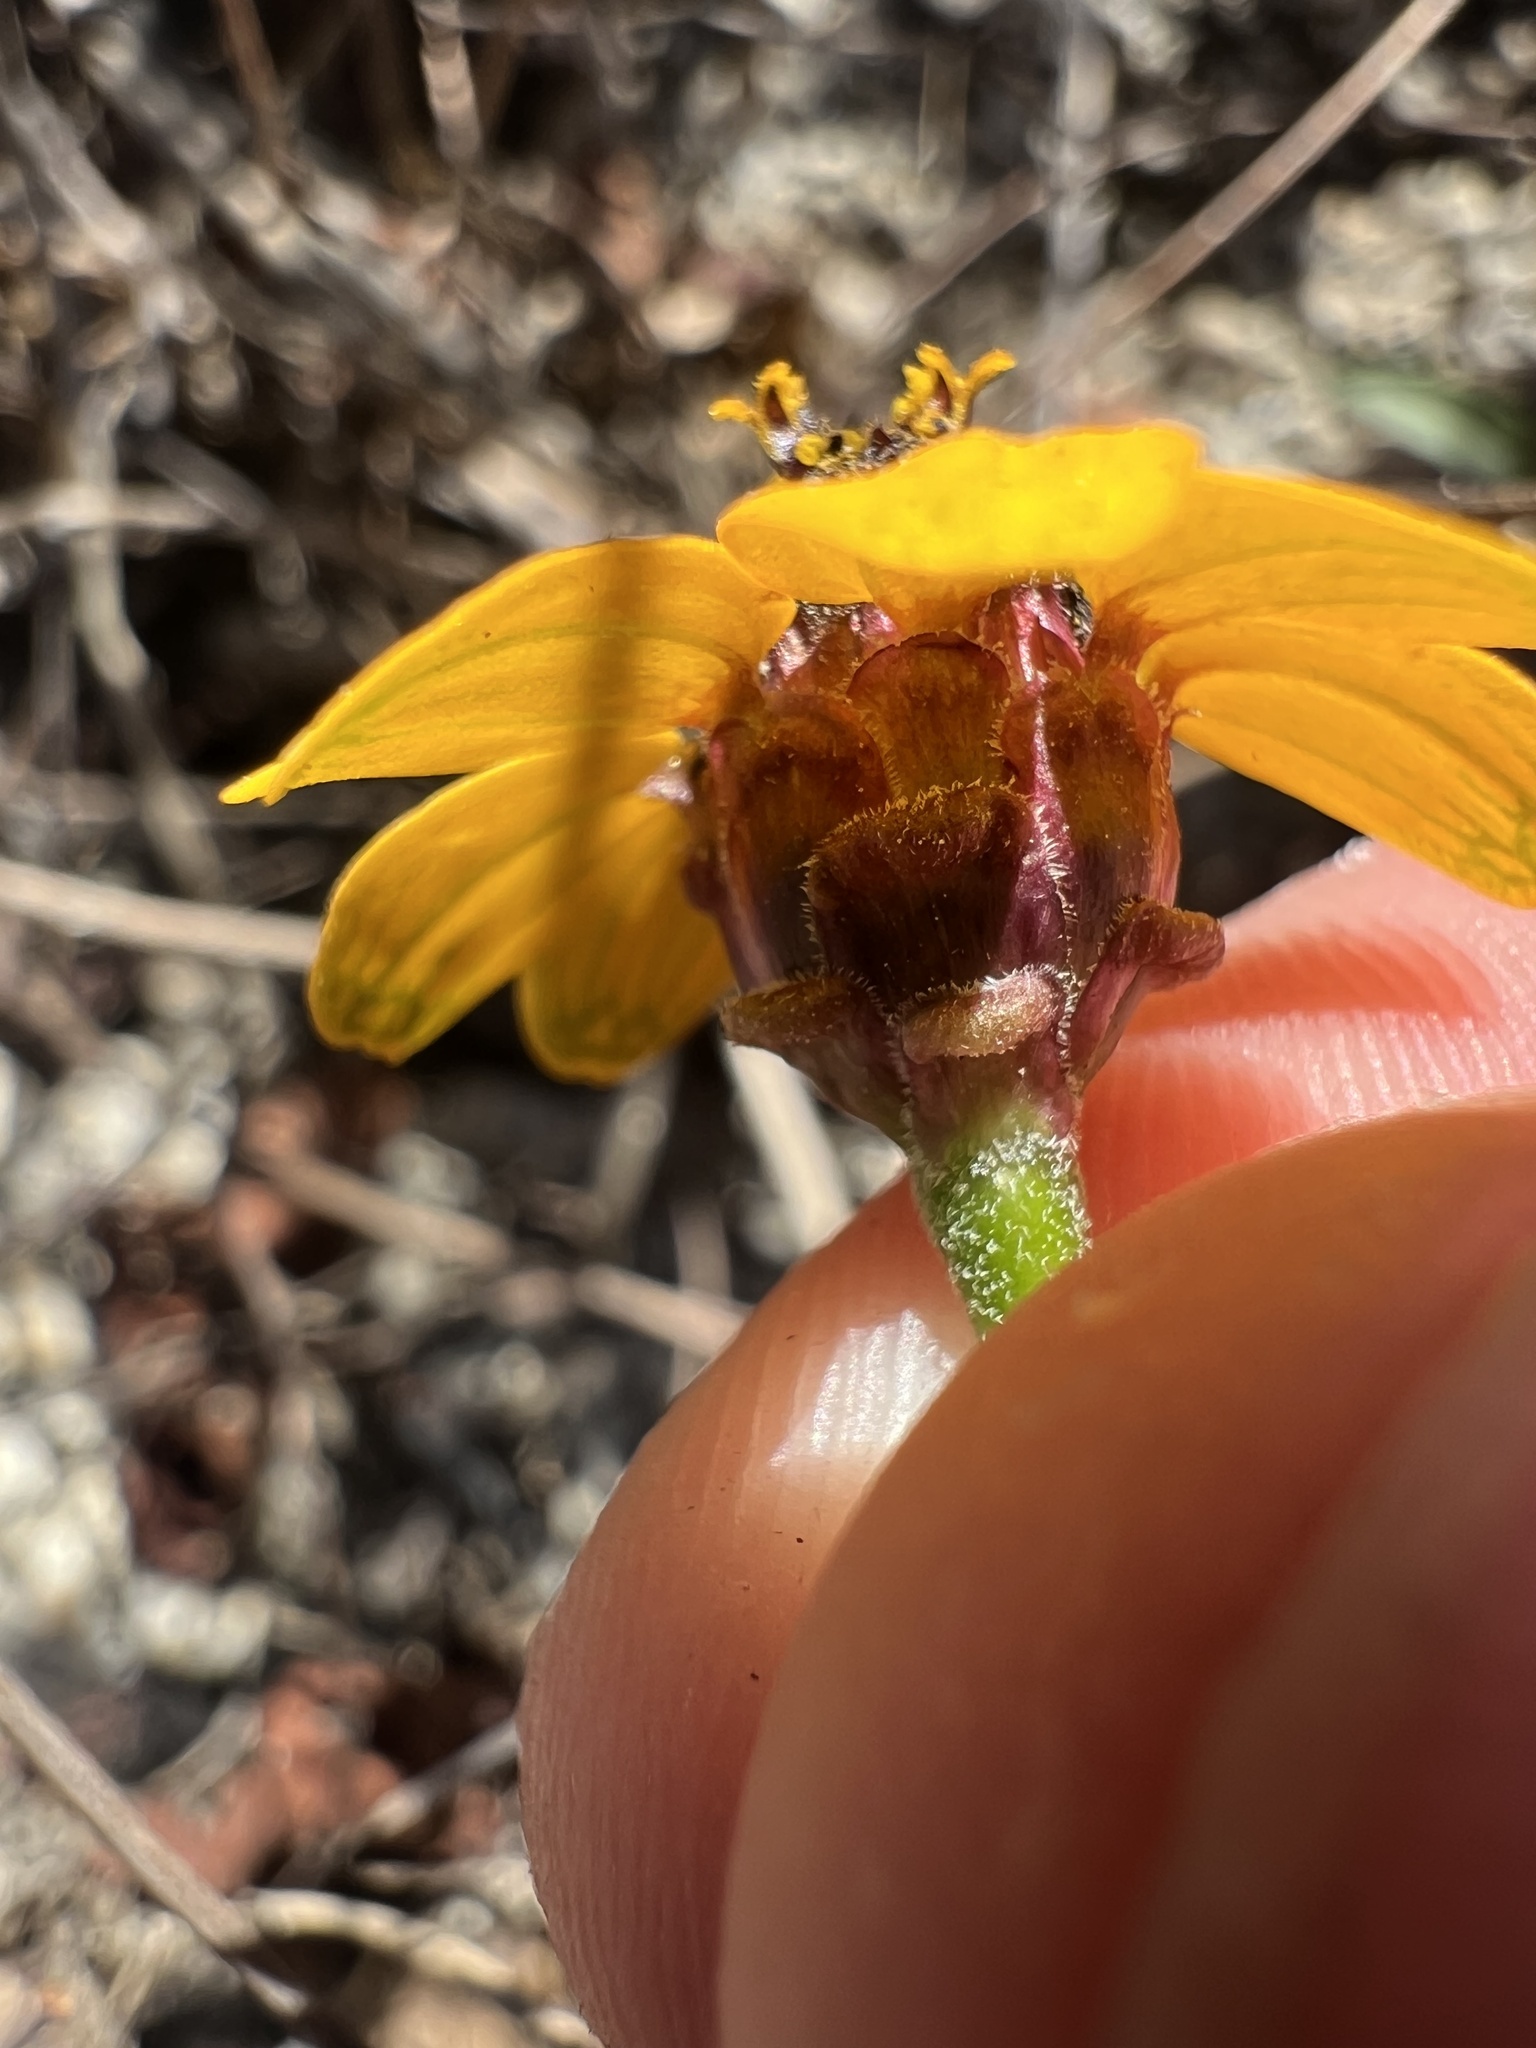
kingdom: Plantae
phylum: Tracheophyta
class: Magnoliopsida
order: Asterales
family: Asteraceae
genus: Zinnia
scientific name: Zinnia maritima
